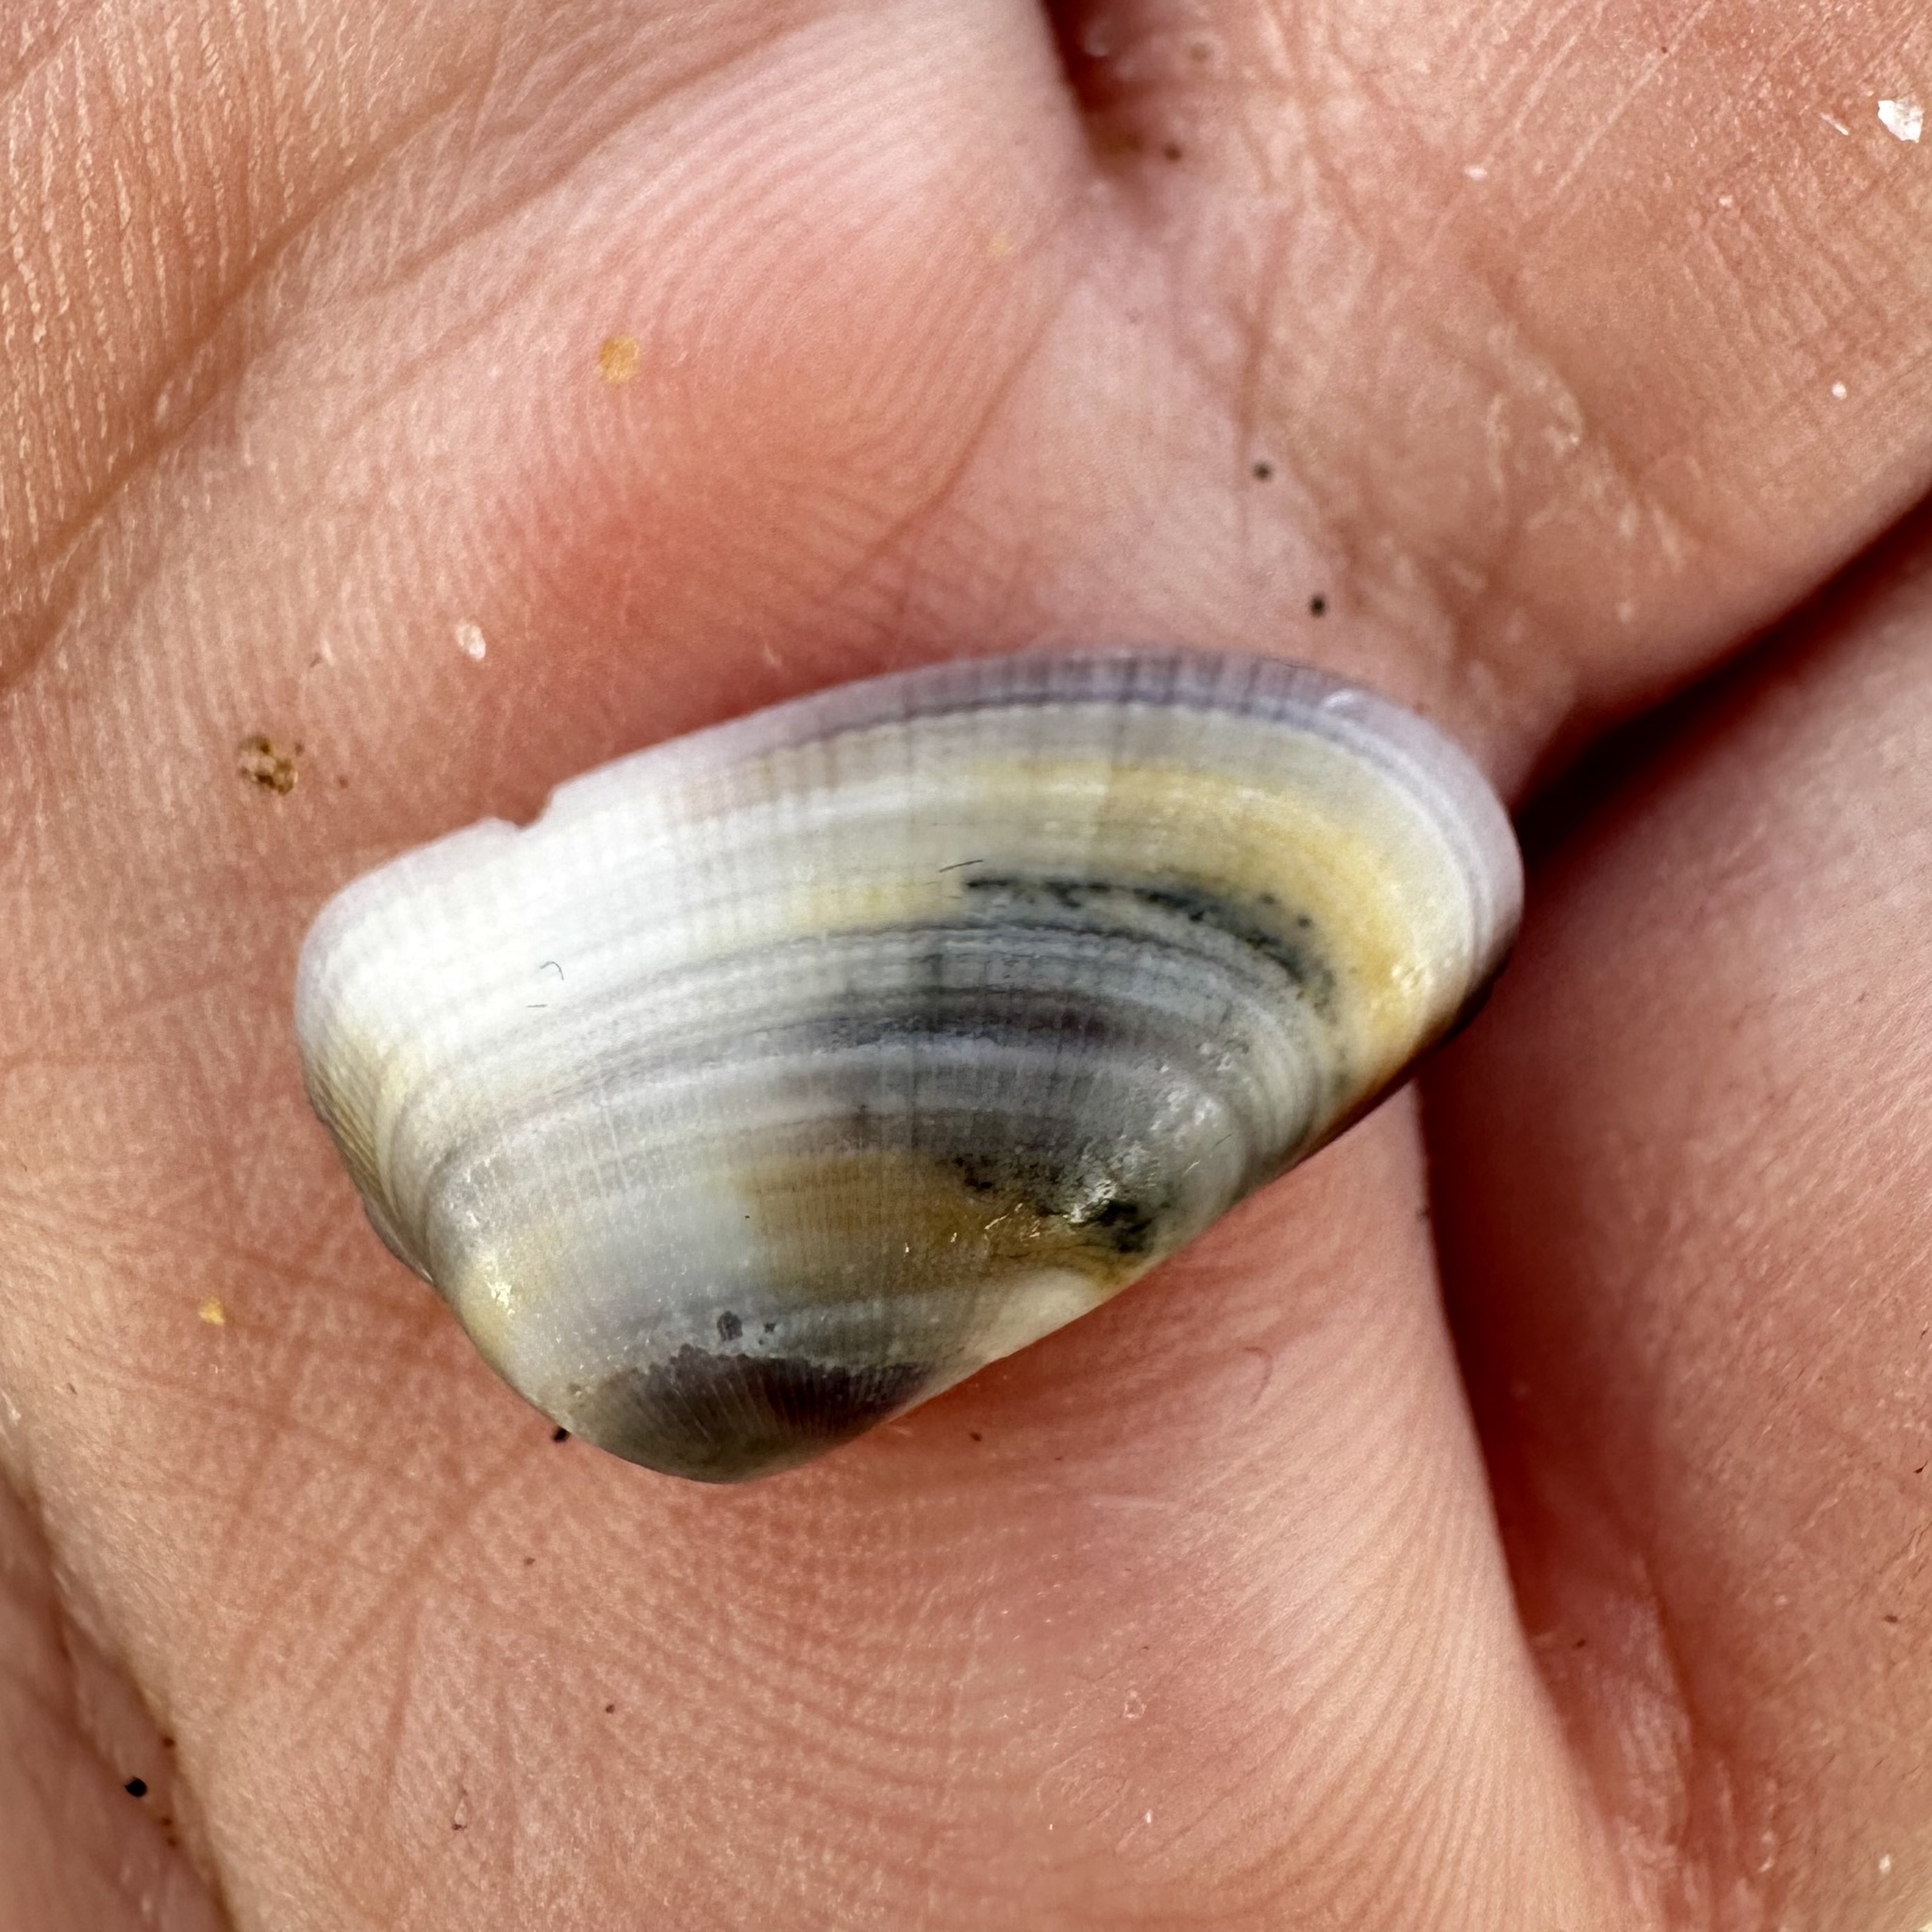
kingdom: Animalia
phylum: Mollusca
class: Bivalvia
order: Cardiida
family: Donacidae
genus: Donax
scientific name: Donax gouldii
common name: Gould beanclam
